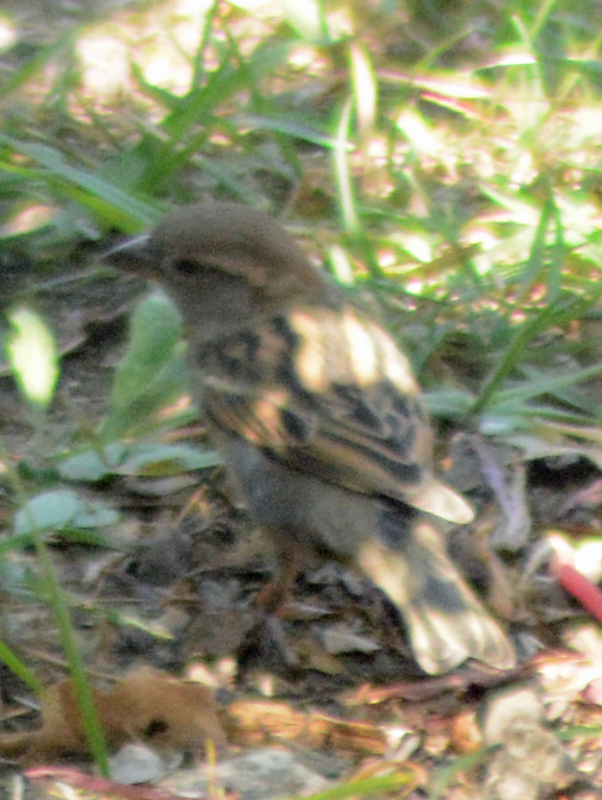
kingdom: Animalia
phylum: Chordata
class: Aves
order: Passeriformes
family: Passeridae
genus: Passer
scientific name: Passer domesticus
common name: House sparrow
